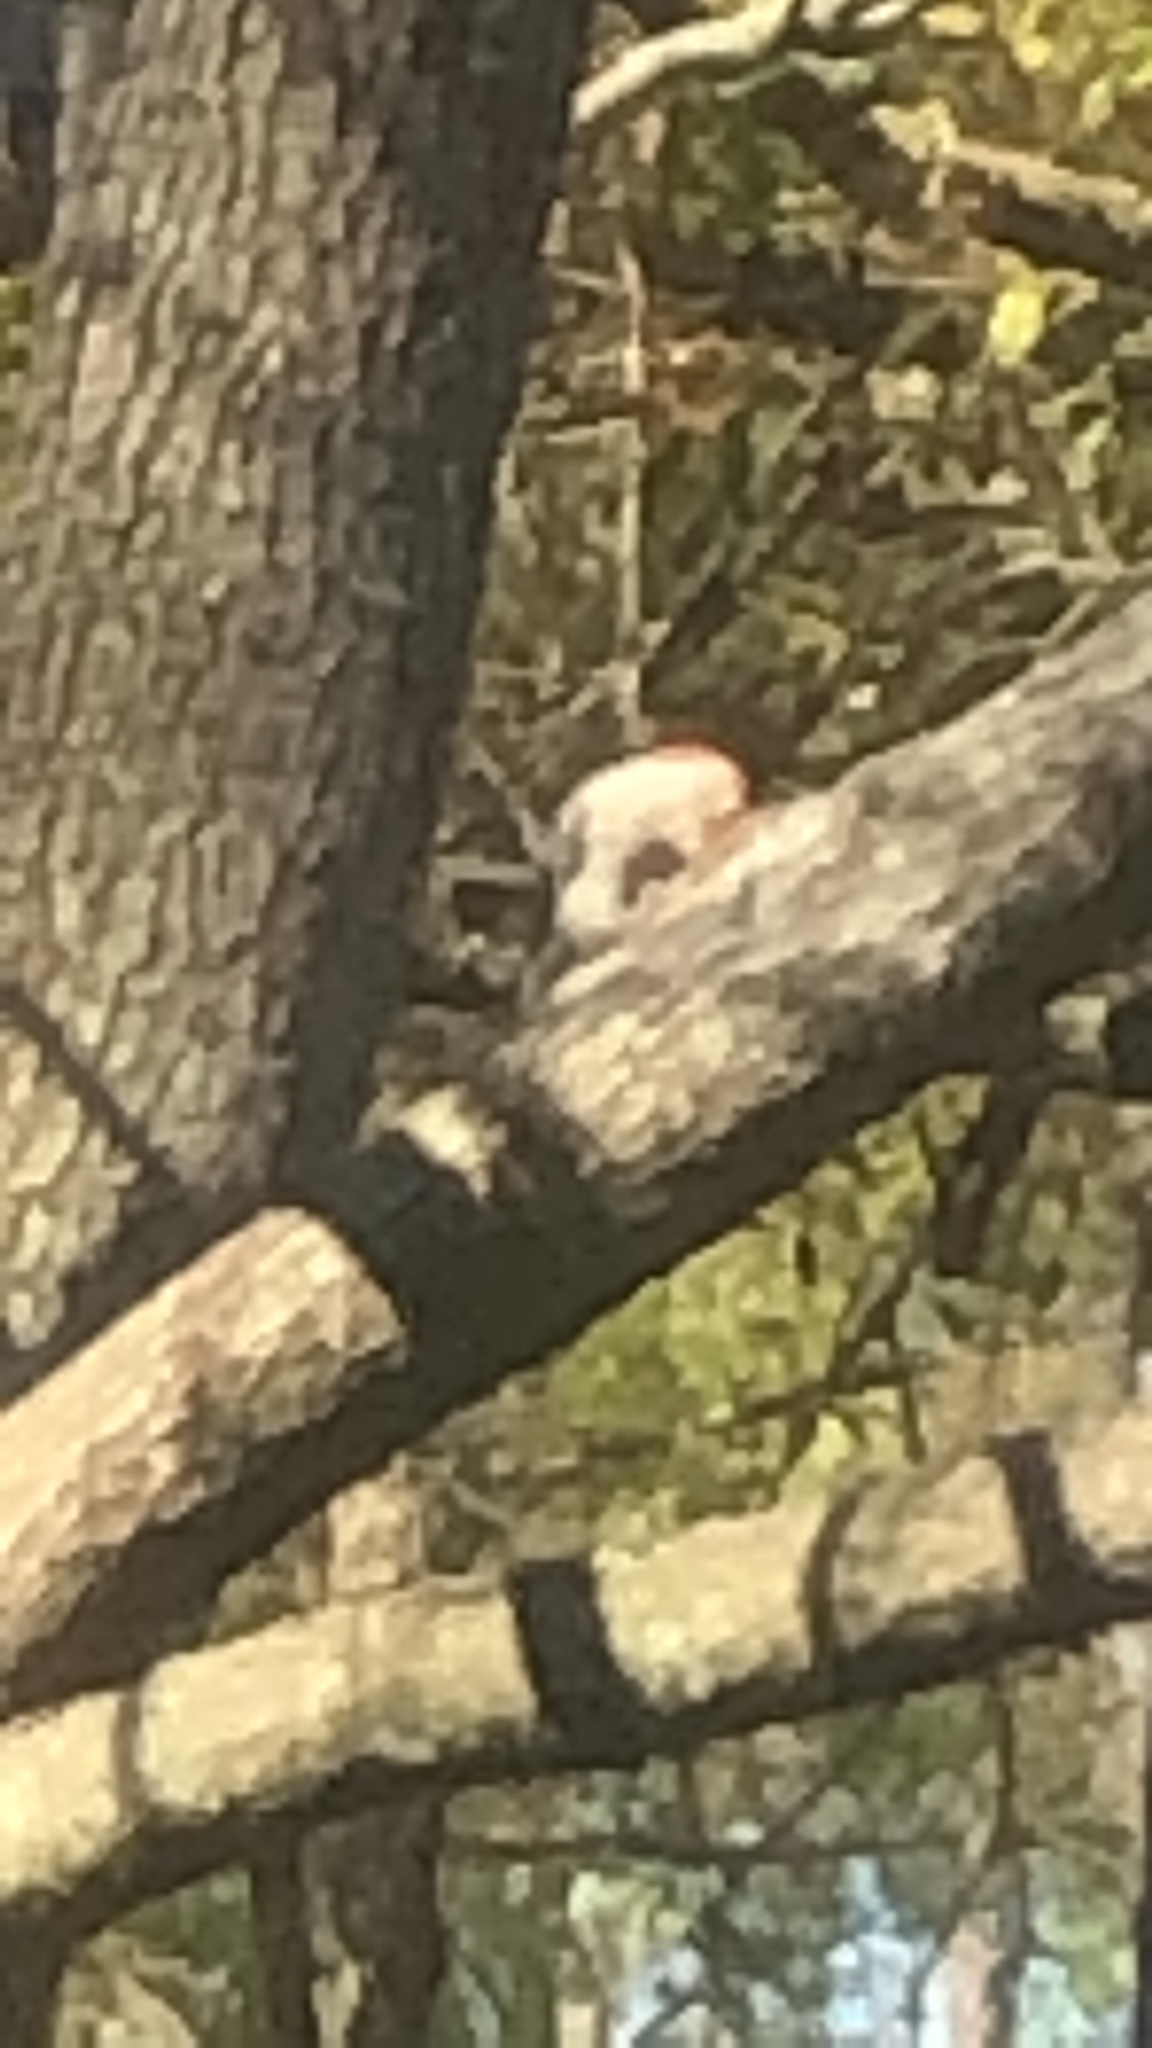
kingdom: Animalia
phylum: Chordata
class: Aves
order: Piciformes
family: Picidae
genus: Melanerpes
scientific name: Melanerpes carolinus
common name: Red-bellied woodpecker
